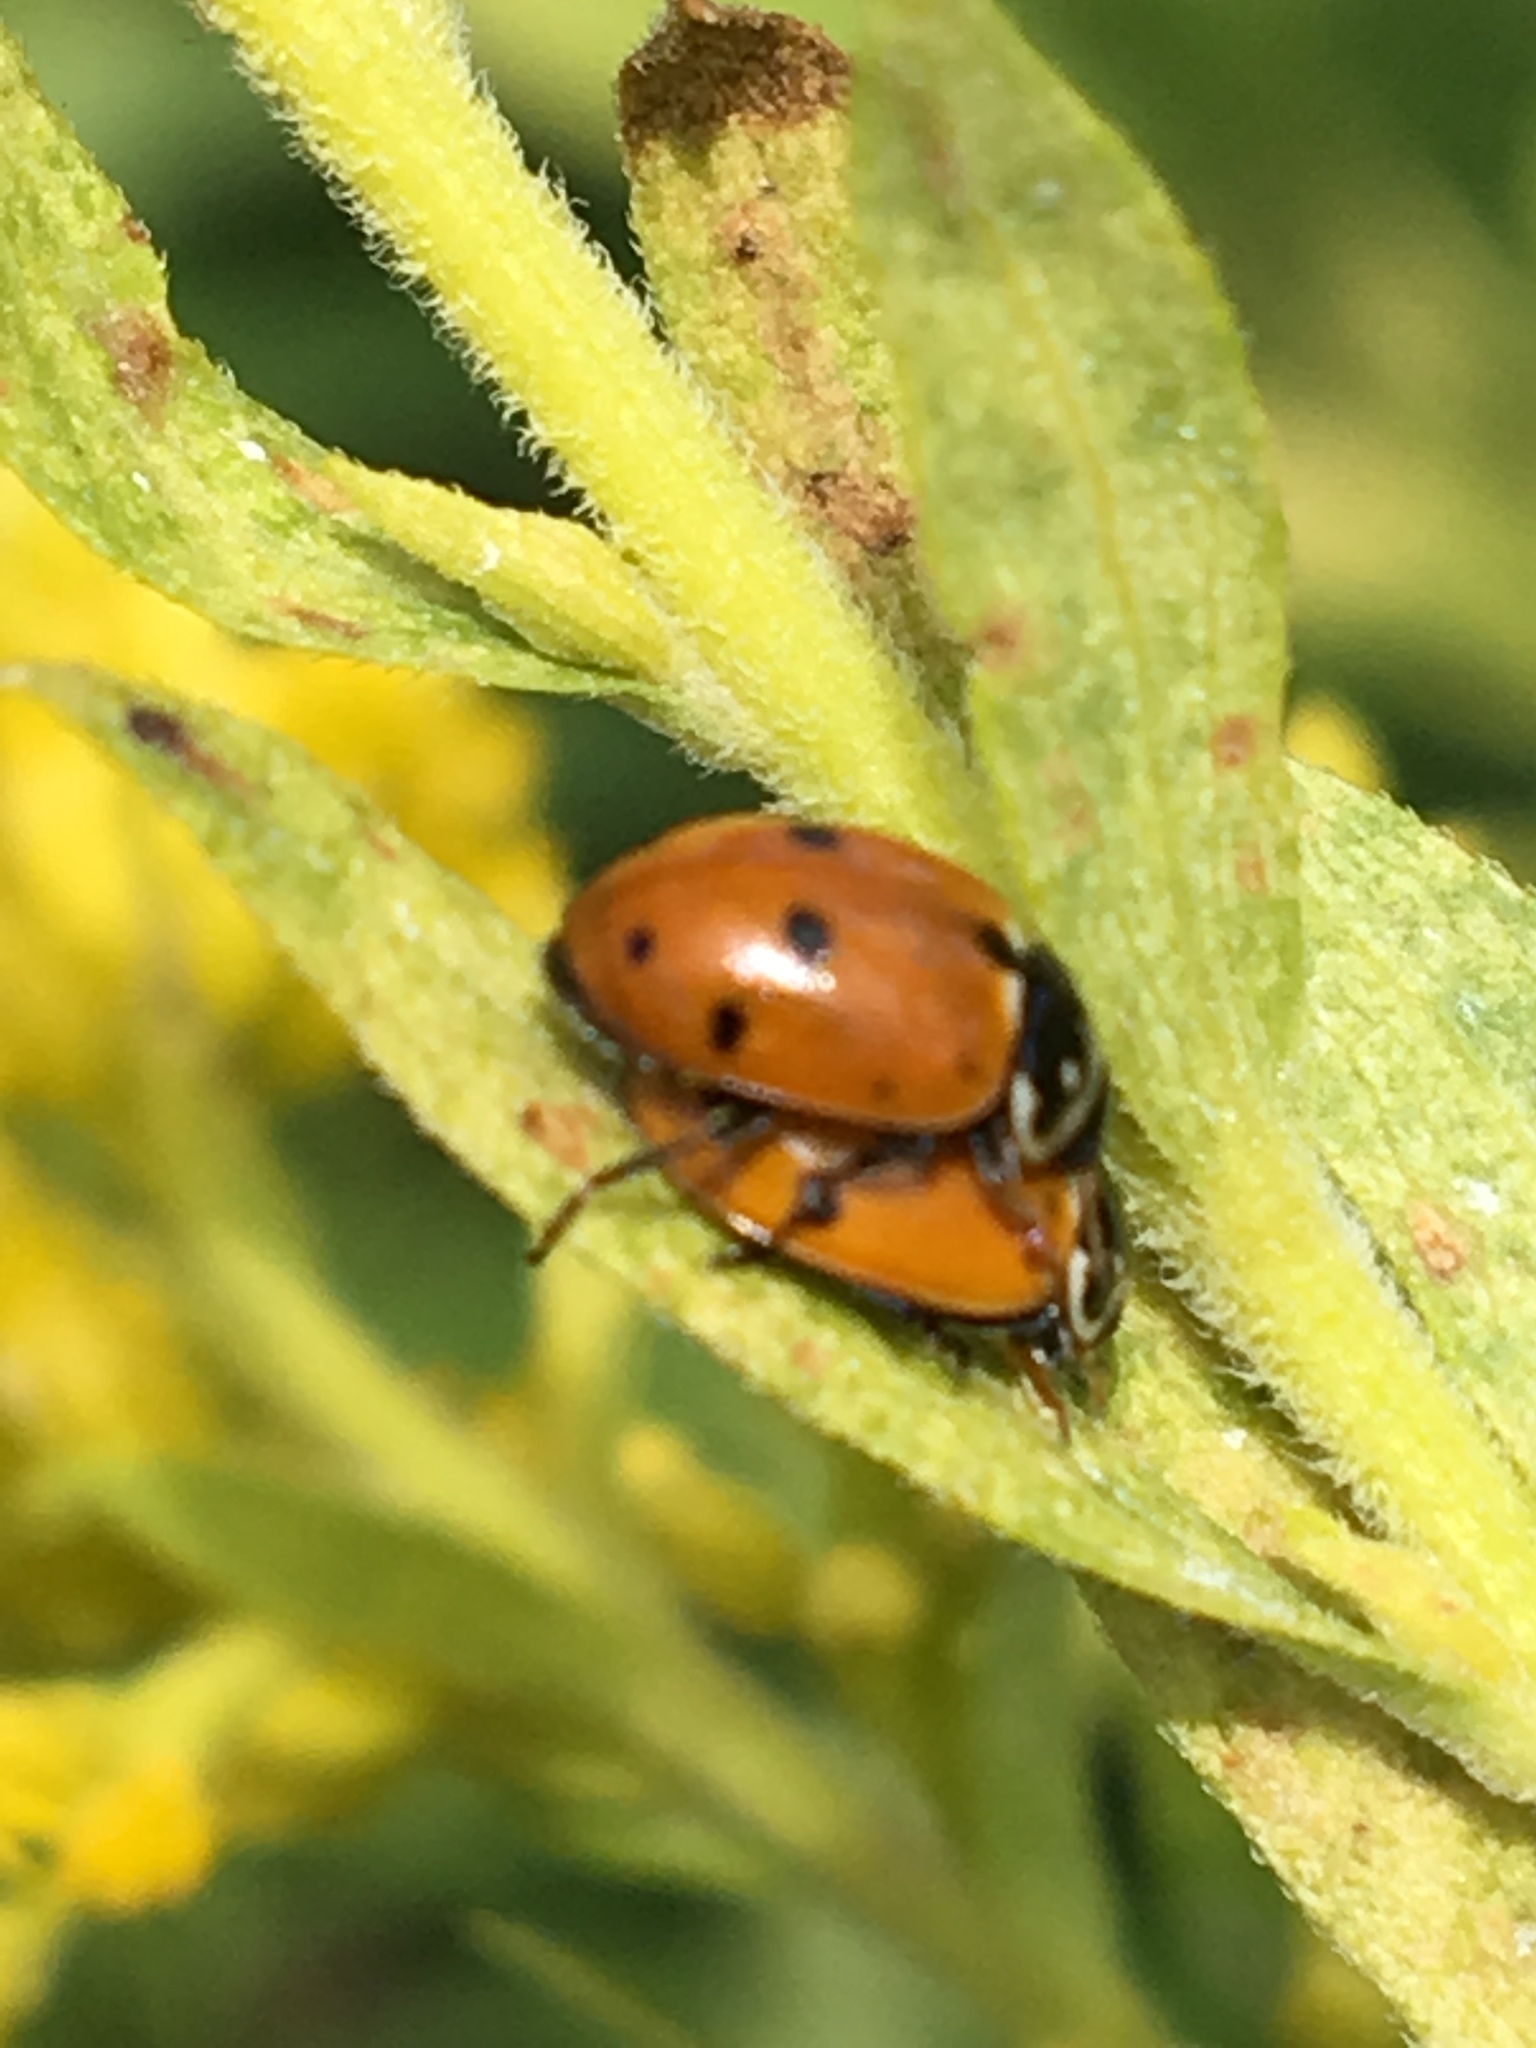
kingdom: Animalia
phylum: Arthropoda
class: Insecta
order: Coleoptera
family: Coccinellidae
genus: Hippodamia
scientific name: Hippodamia variegata
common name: Ladybird beetle
